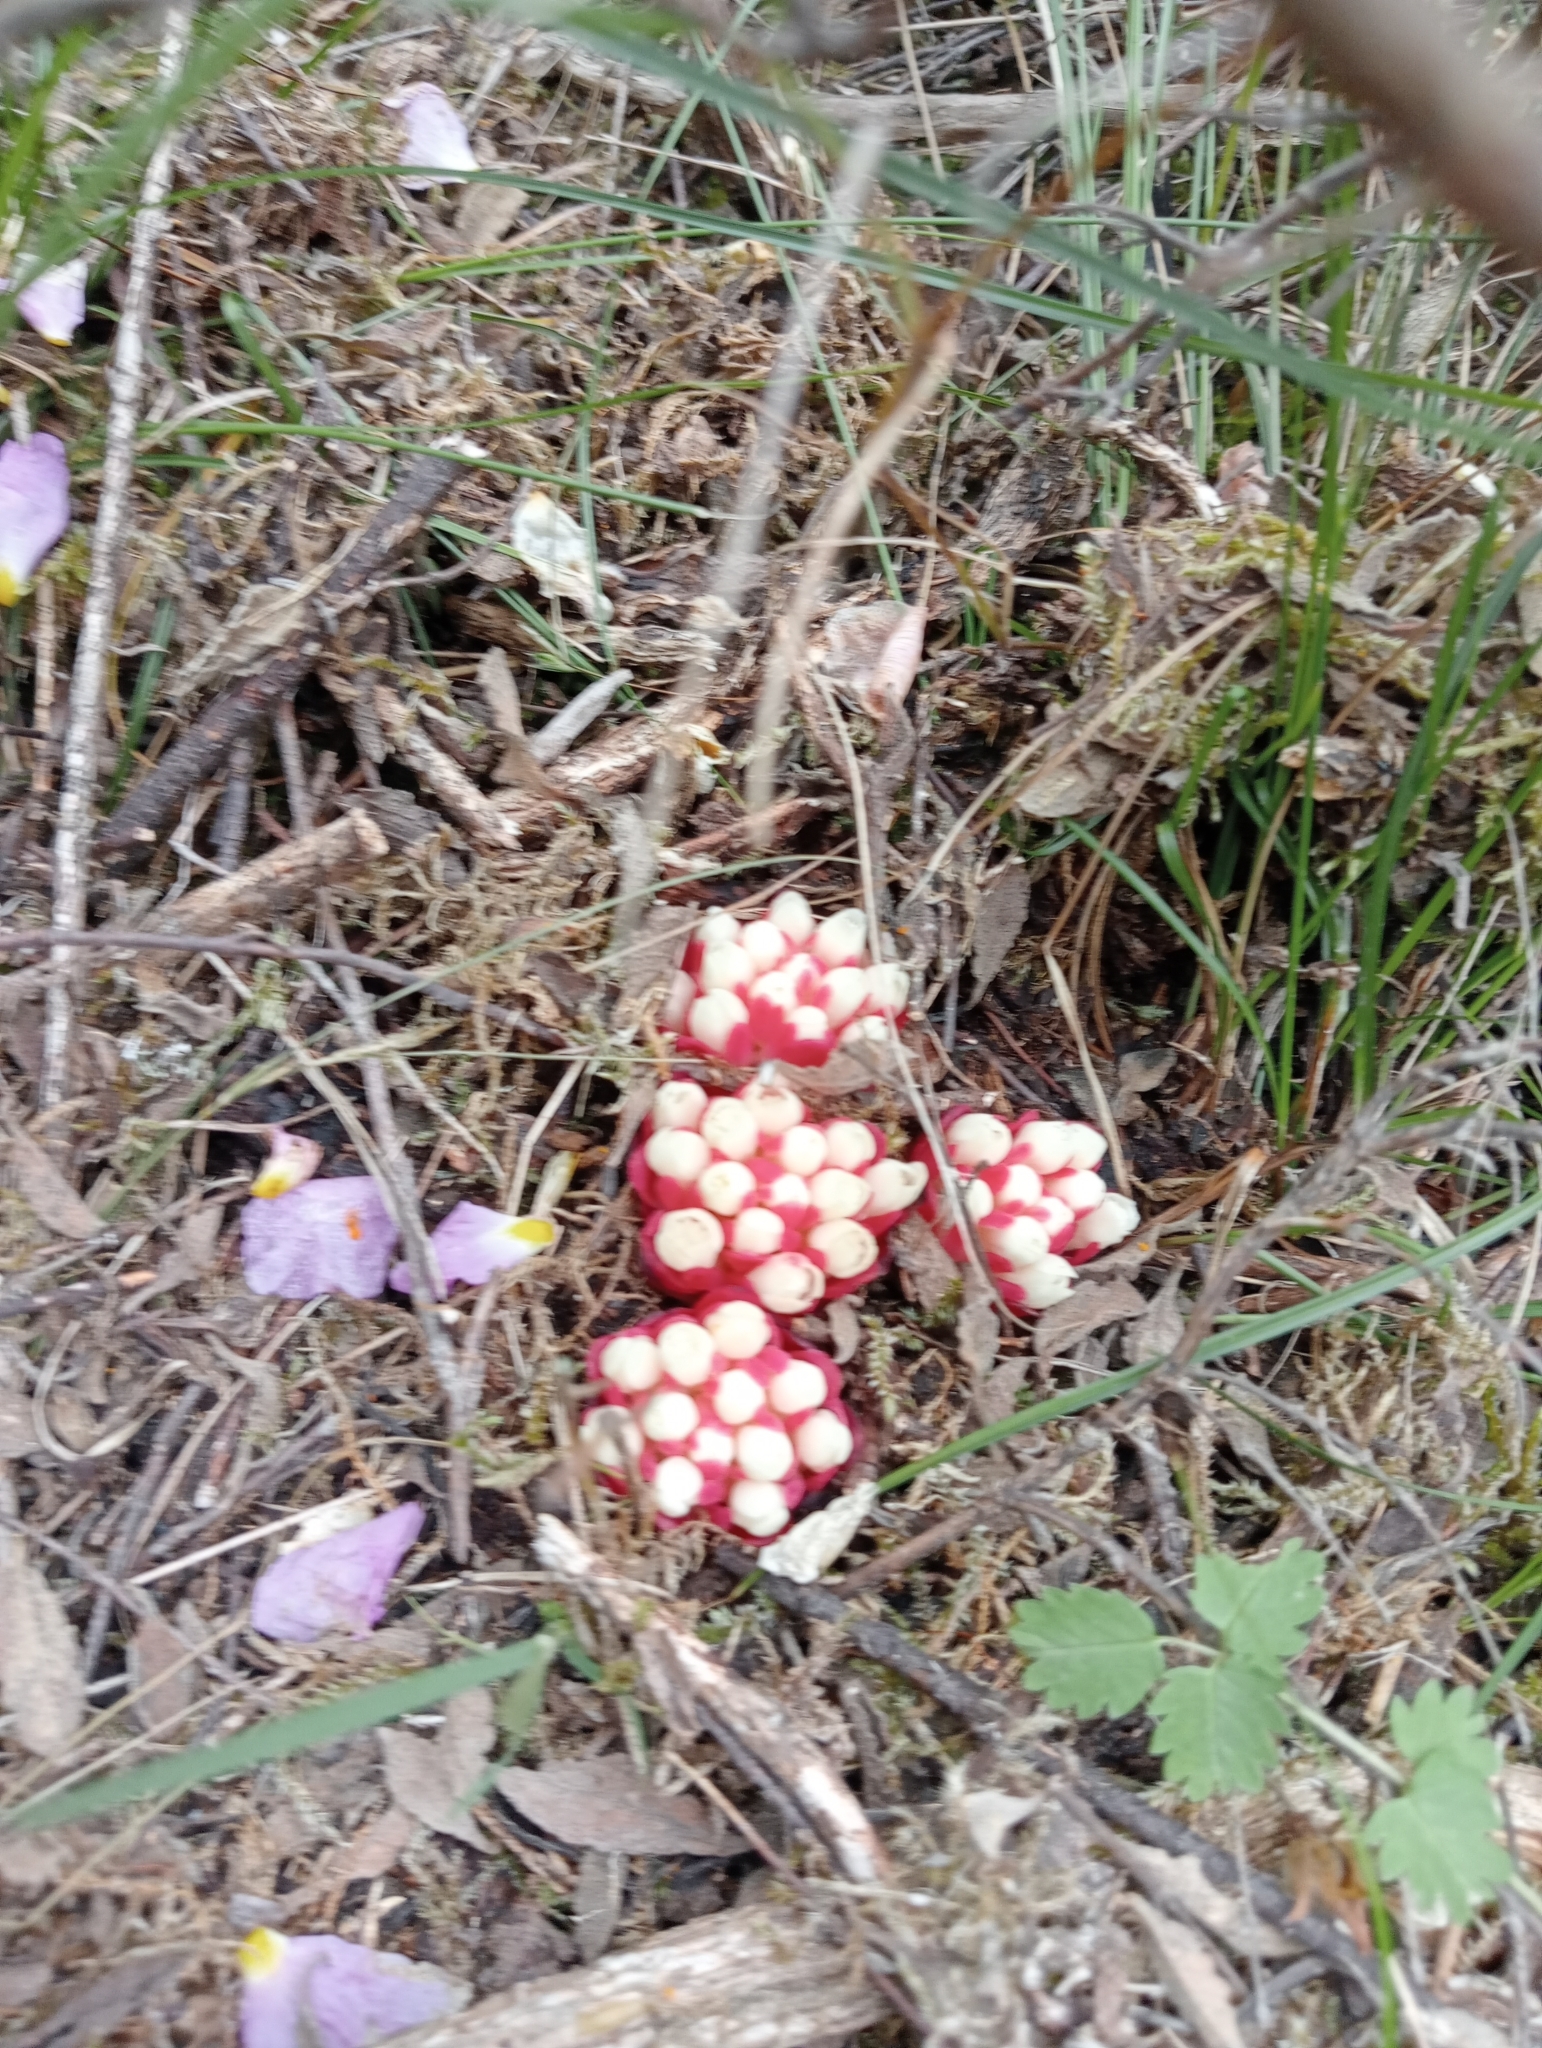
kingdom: Plantae
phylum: Tracheophyta
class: Magnoliopsida
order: Malvales
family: Cytinaceae
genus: Cytinus
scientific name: Cytinus ruber
